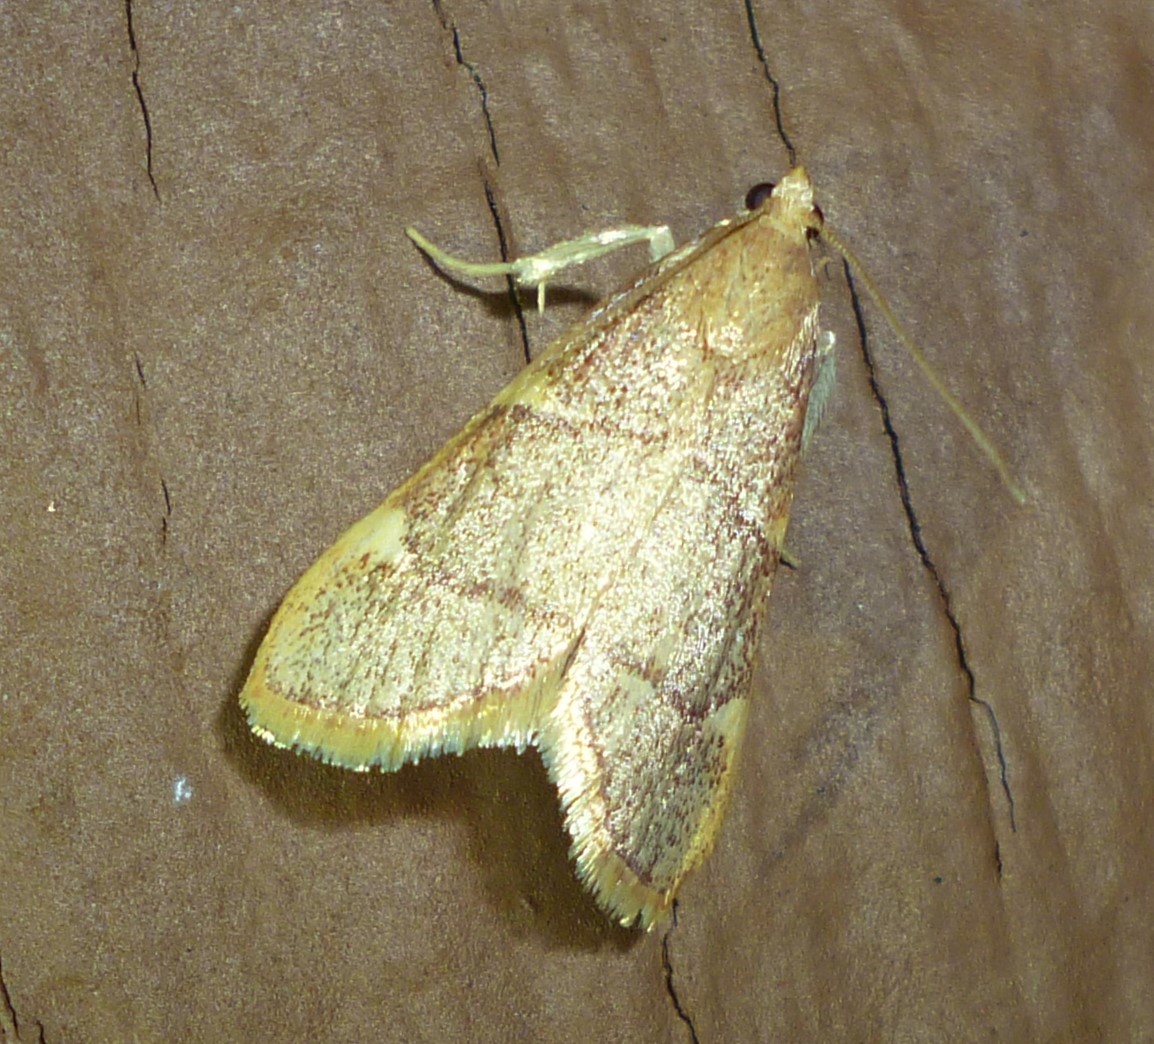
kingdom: Animalia
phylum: Arthropoda
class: Insecta
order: Lepidoptera
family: Pyralidae
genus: Hypsopygia
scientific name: Hypsopygia olinalis
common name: Yellow-fringed dolichomia moth
